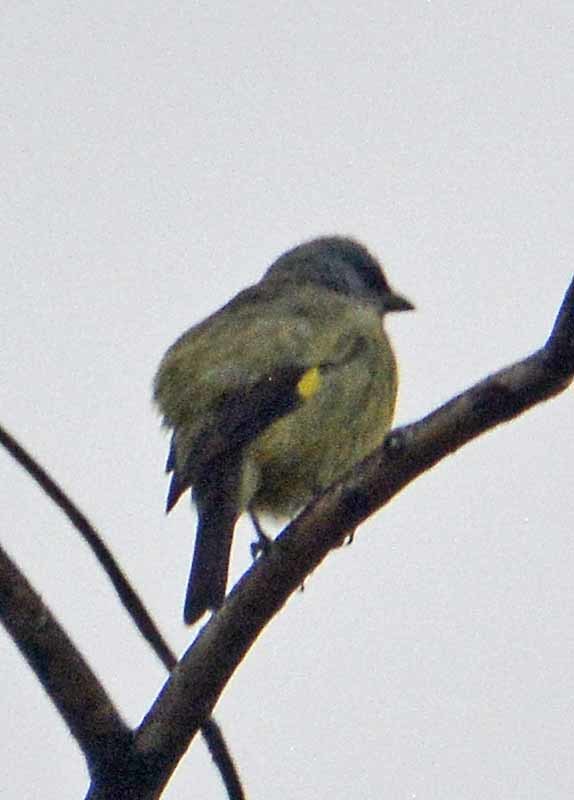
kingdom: Animalia
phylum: Chordata
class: Aves
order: Passeriformes
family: Thraupidae
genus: Thraupis
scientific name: Thraupis abbas
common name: Yellow-winged tanager
